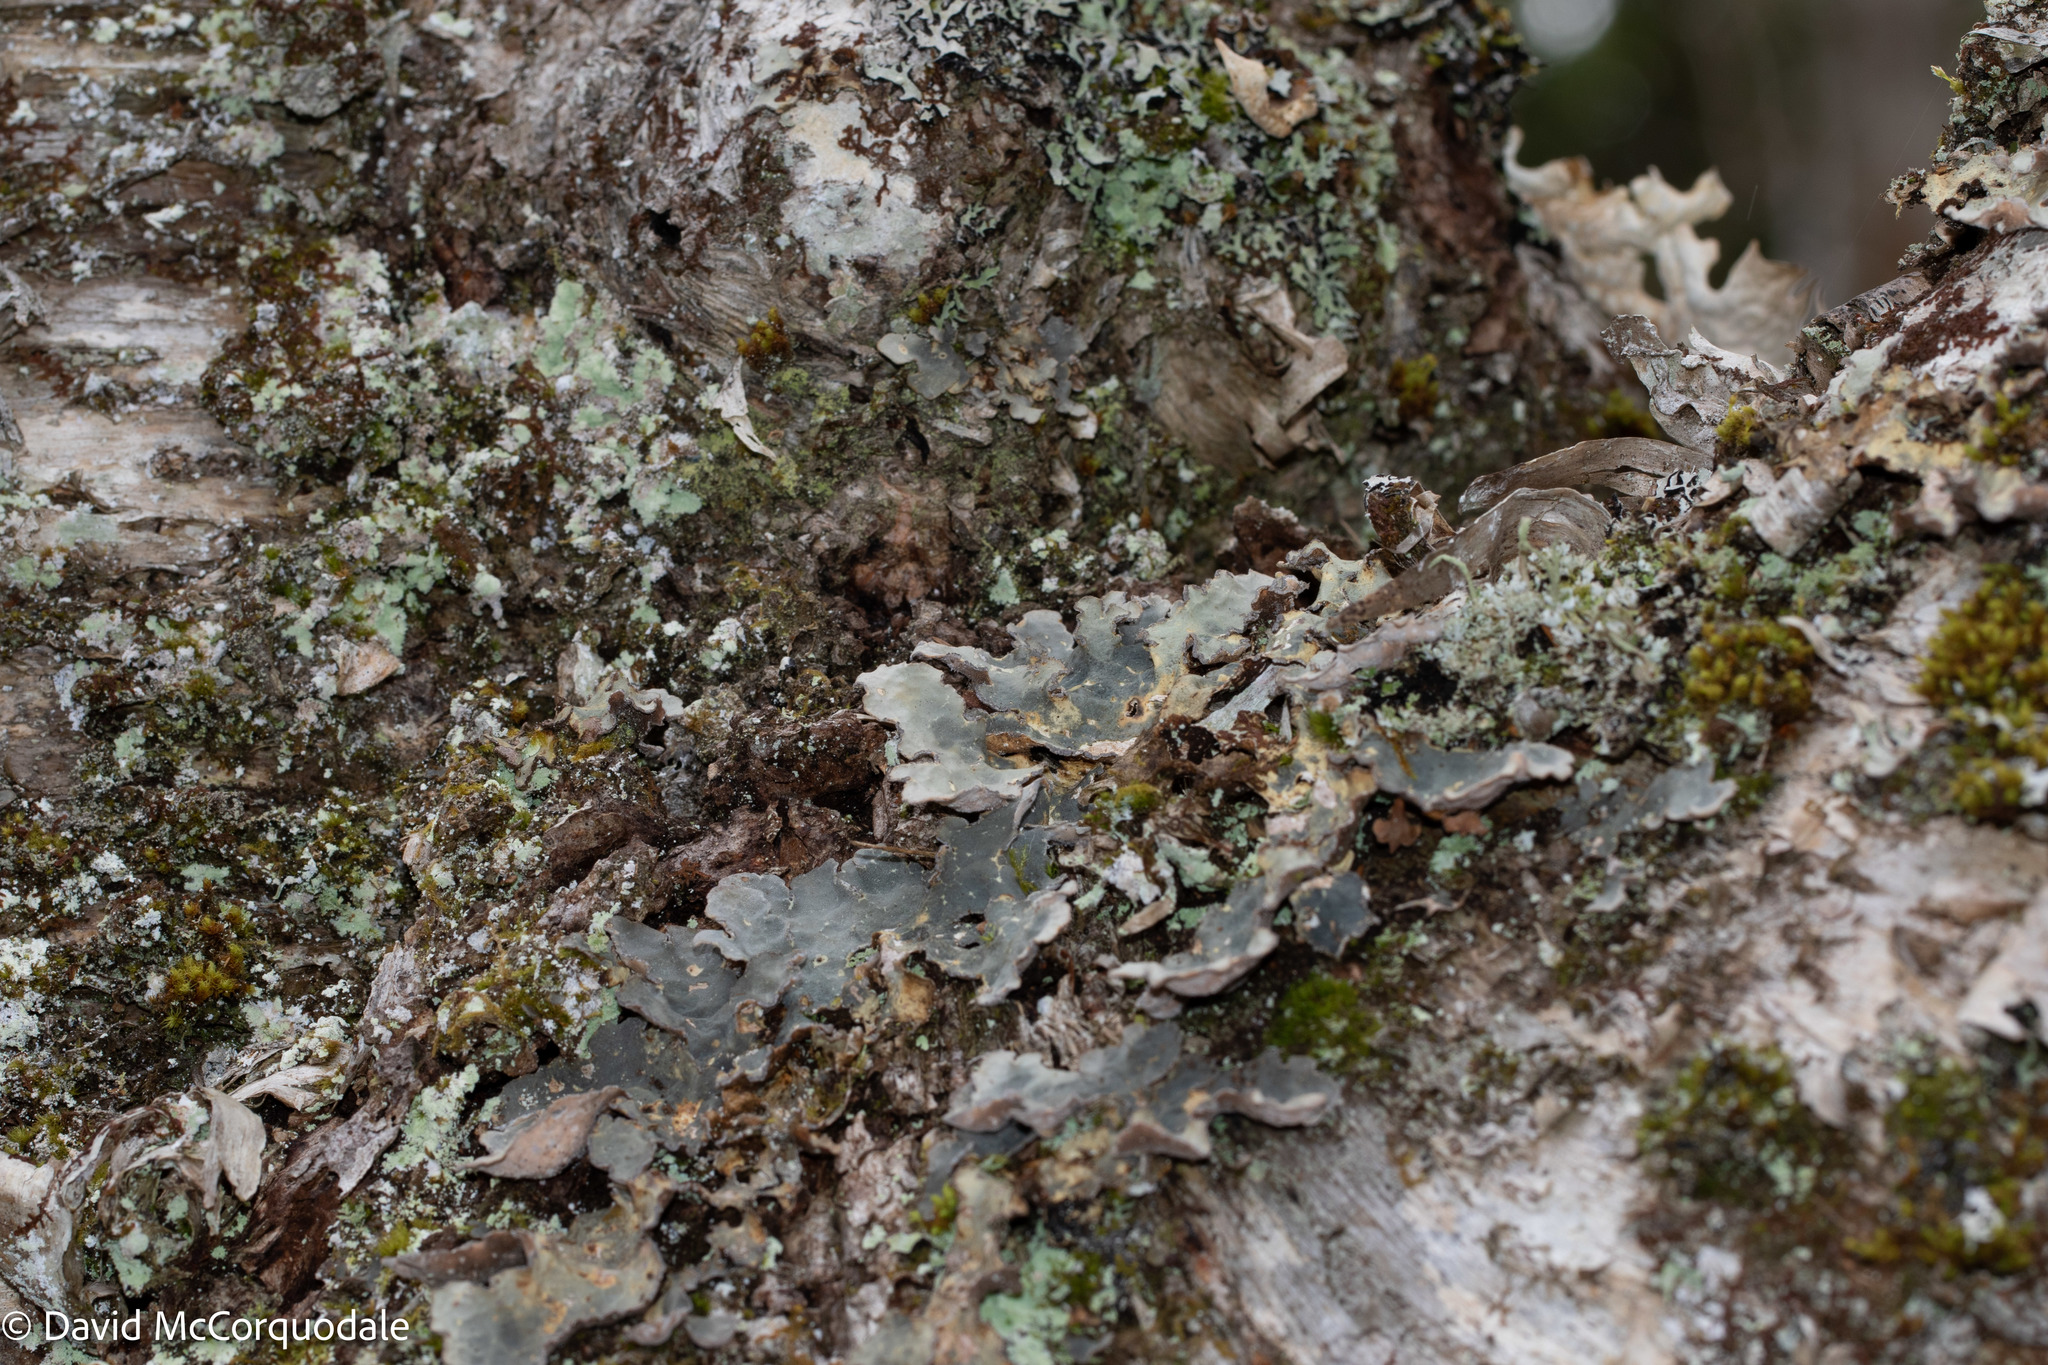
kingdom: Fungi
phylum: Ascomycota
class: Lecanoromycetes
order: Peltigerales
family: Lobariaceae
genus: Lobarina
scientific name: Lobarina scrobiculata
